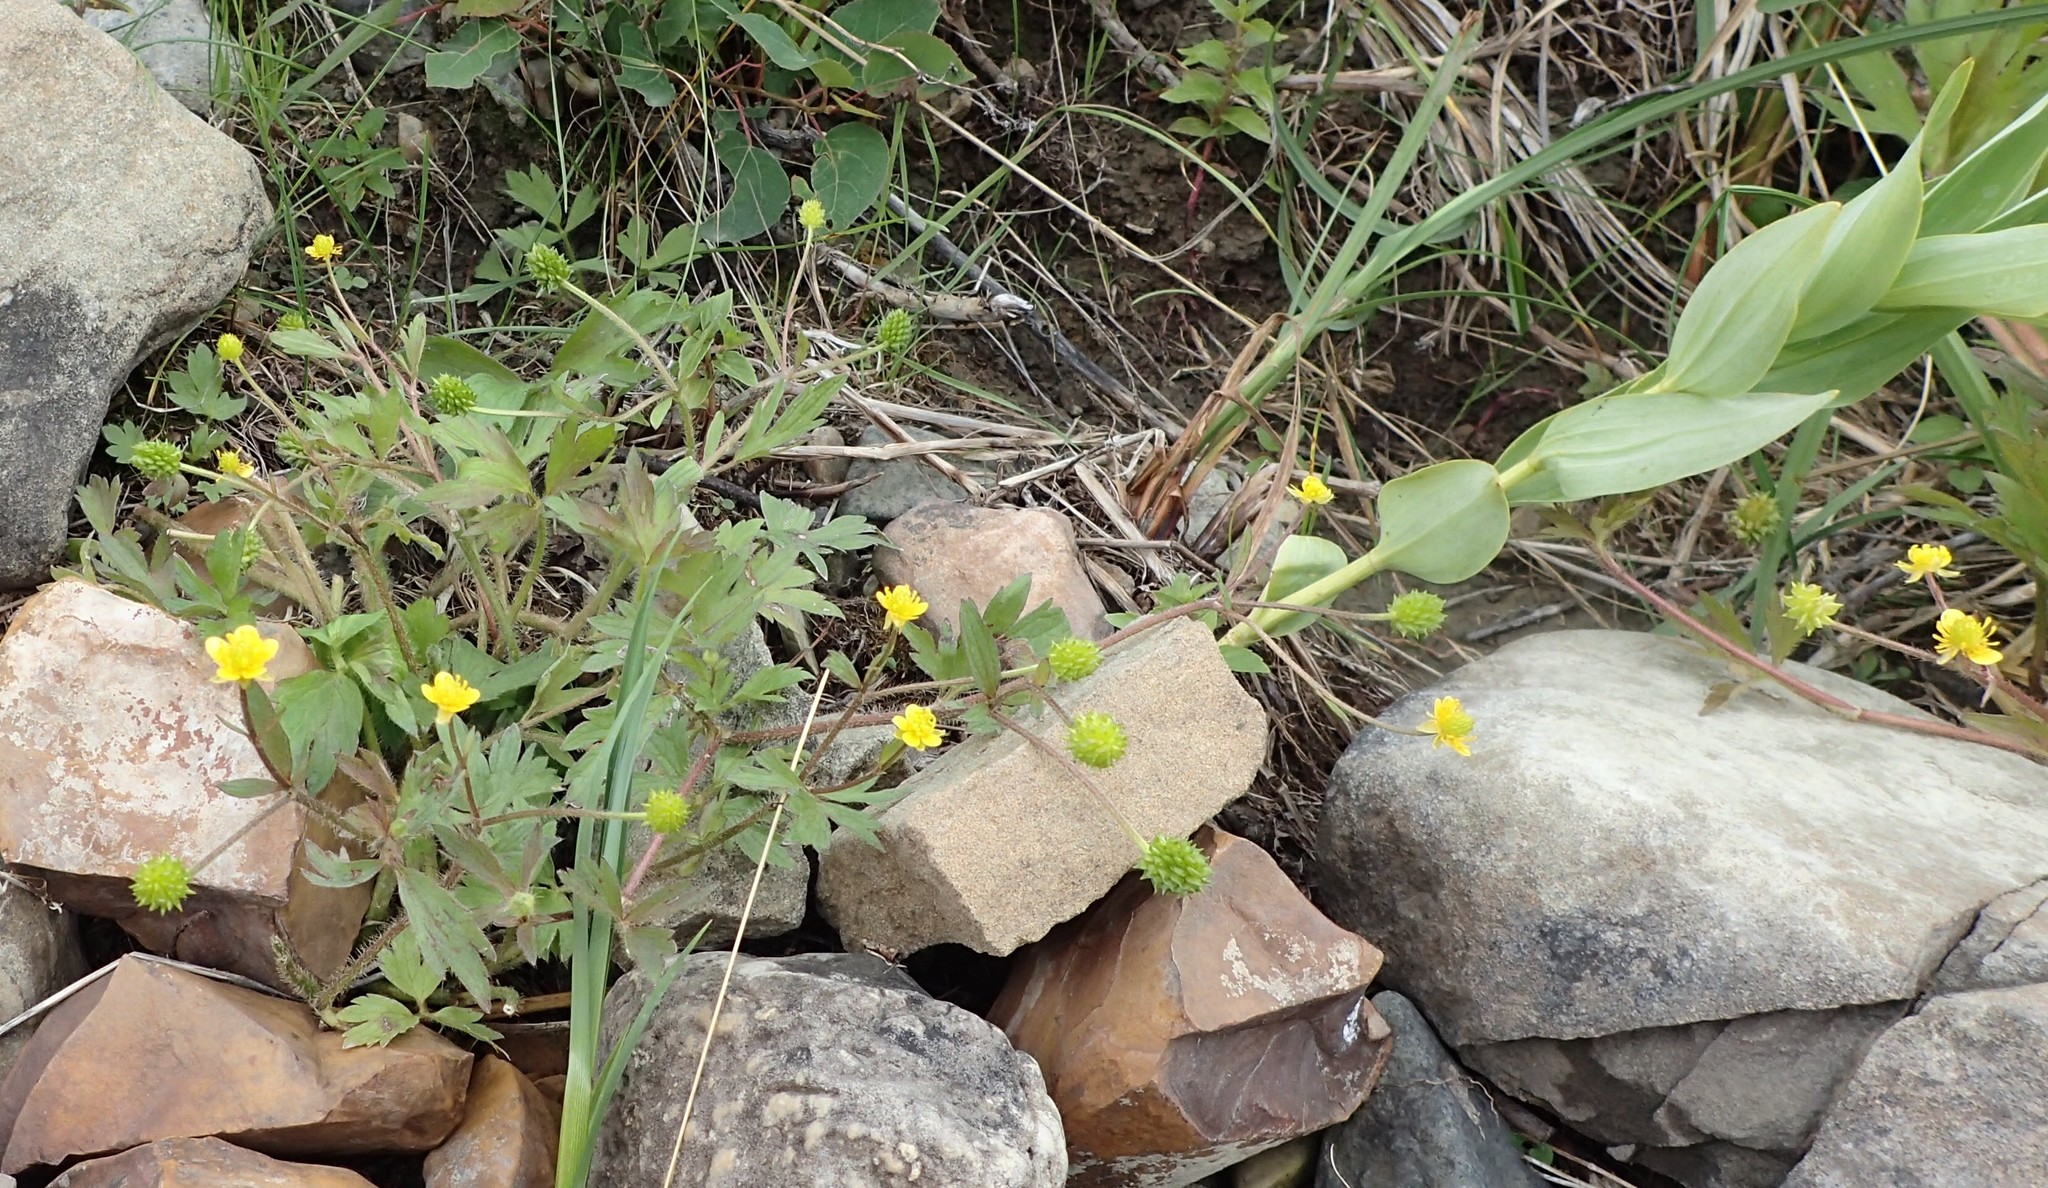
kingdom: Plantae
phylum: Tracheophyta
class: Magnoliopsida
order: Ranunculales
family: Ranunculaceae
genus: Ranunculus
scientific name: Ranunculus macounii
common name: Macoun's buttercup
